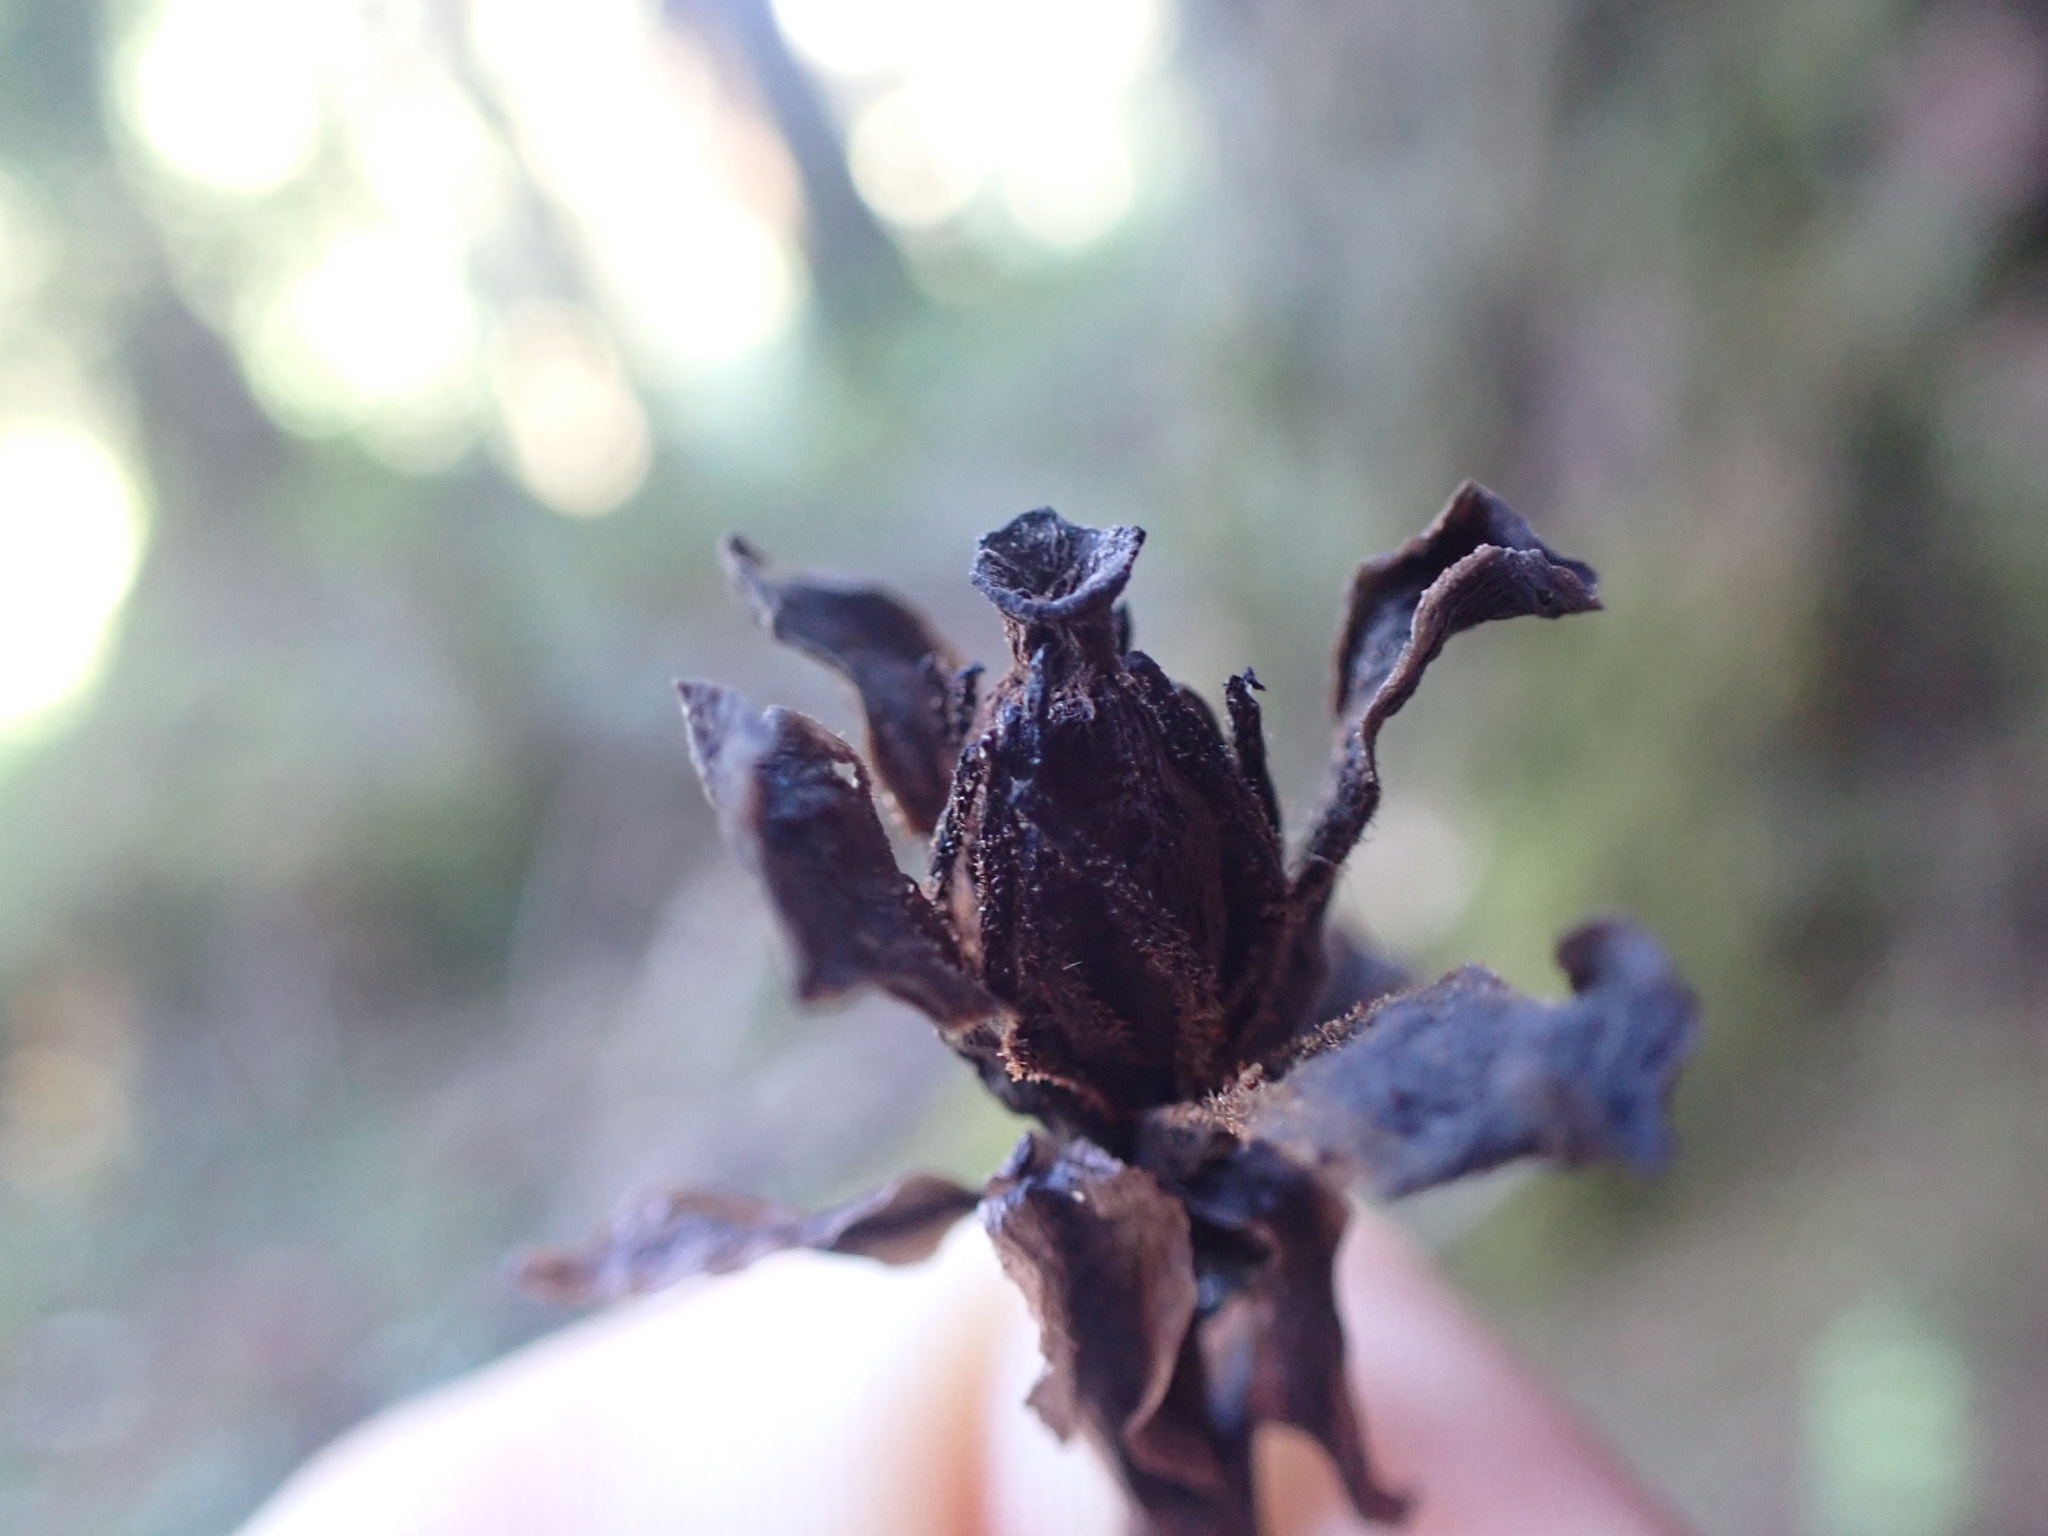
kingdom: Plantae
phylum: Tracheophyta
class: Magnoliopsida
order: Ericales
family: Ericaceae
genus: Monotropa
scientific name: Monotropa uniflora
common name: Convulsion root
